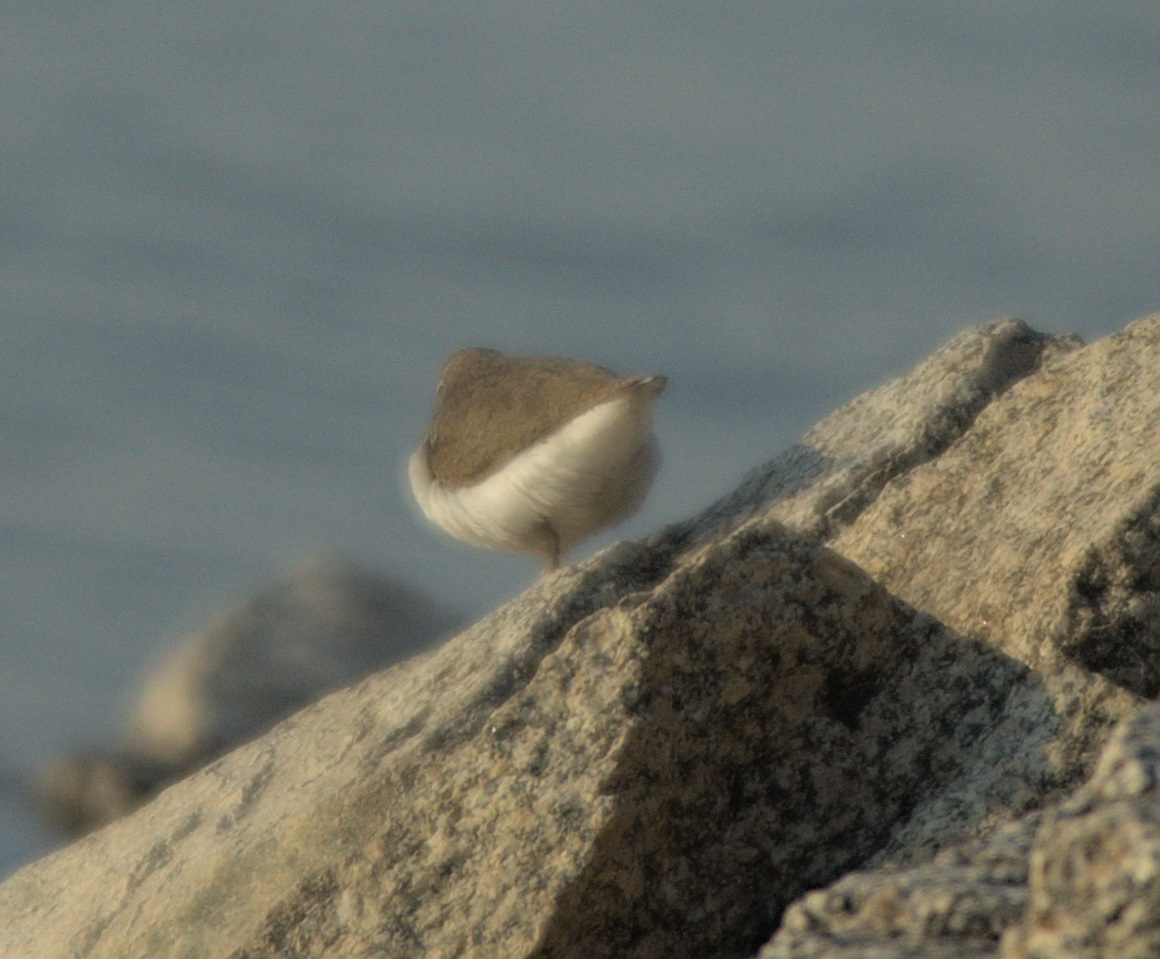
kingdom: Animalia
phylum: Chordata
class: Aves
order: Charadriiformes
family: Scolopacidae
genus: Actitis
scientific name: Actitis hypoleucos
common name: Common sandpiper
